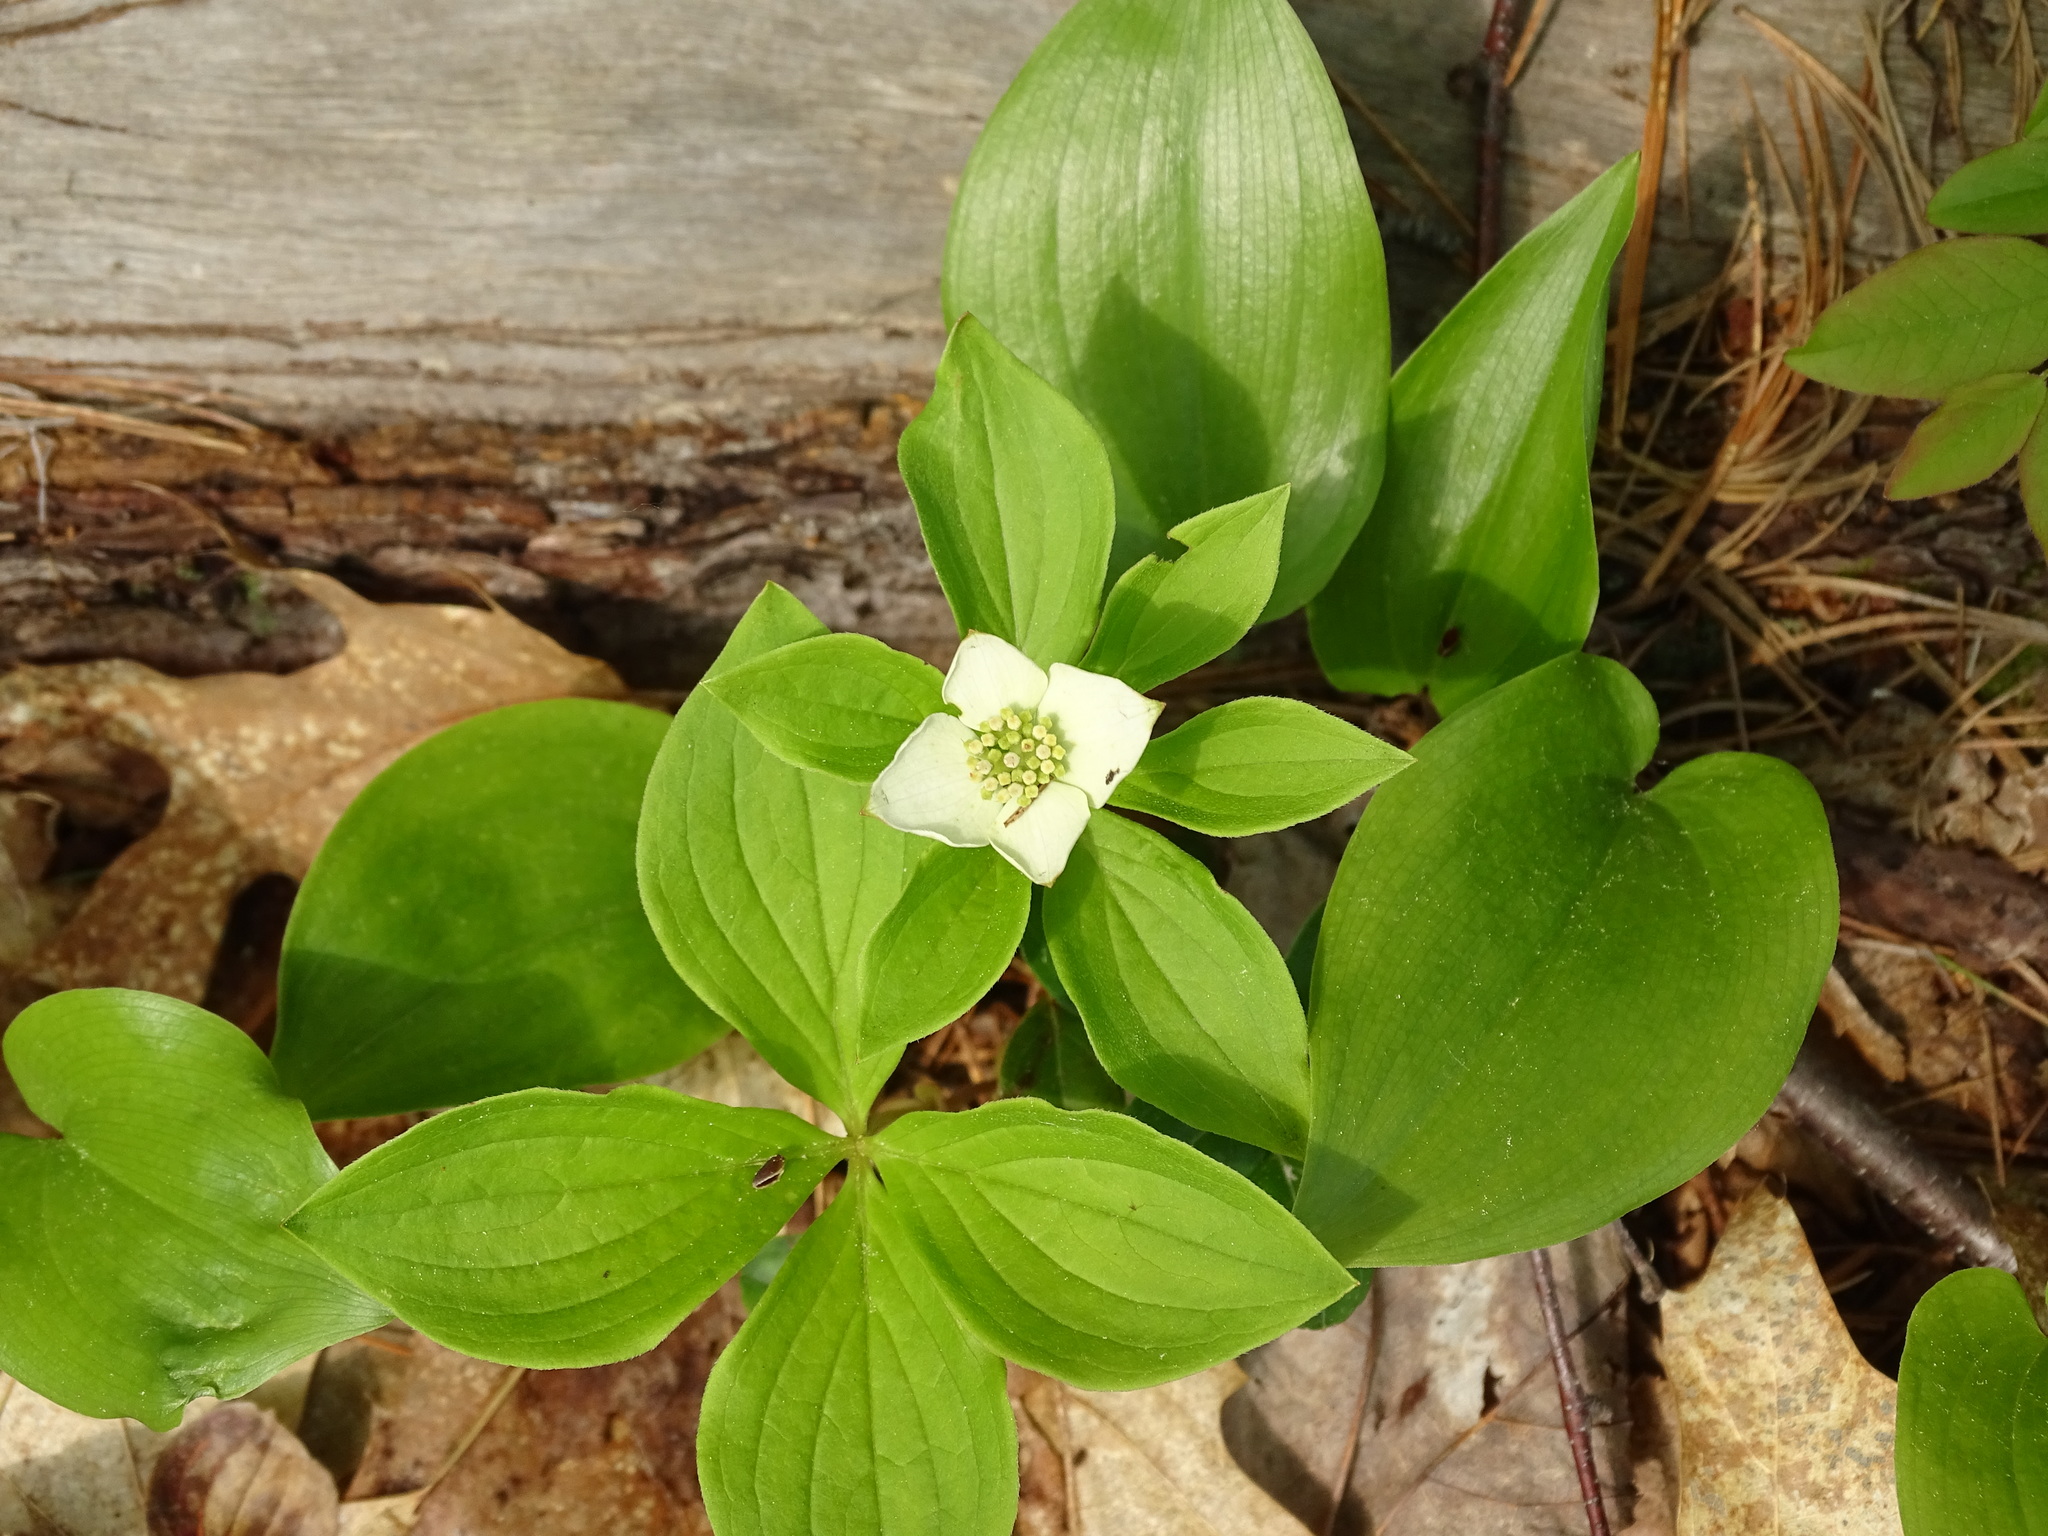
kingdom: Plantae
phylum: Tracheophyta
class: Magnoliopsida
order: Cornales
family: Cornaceae
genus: Cornus
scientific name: Cornus canadensis
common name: Creeping dogwood
